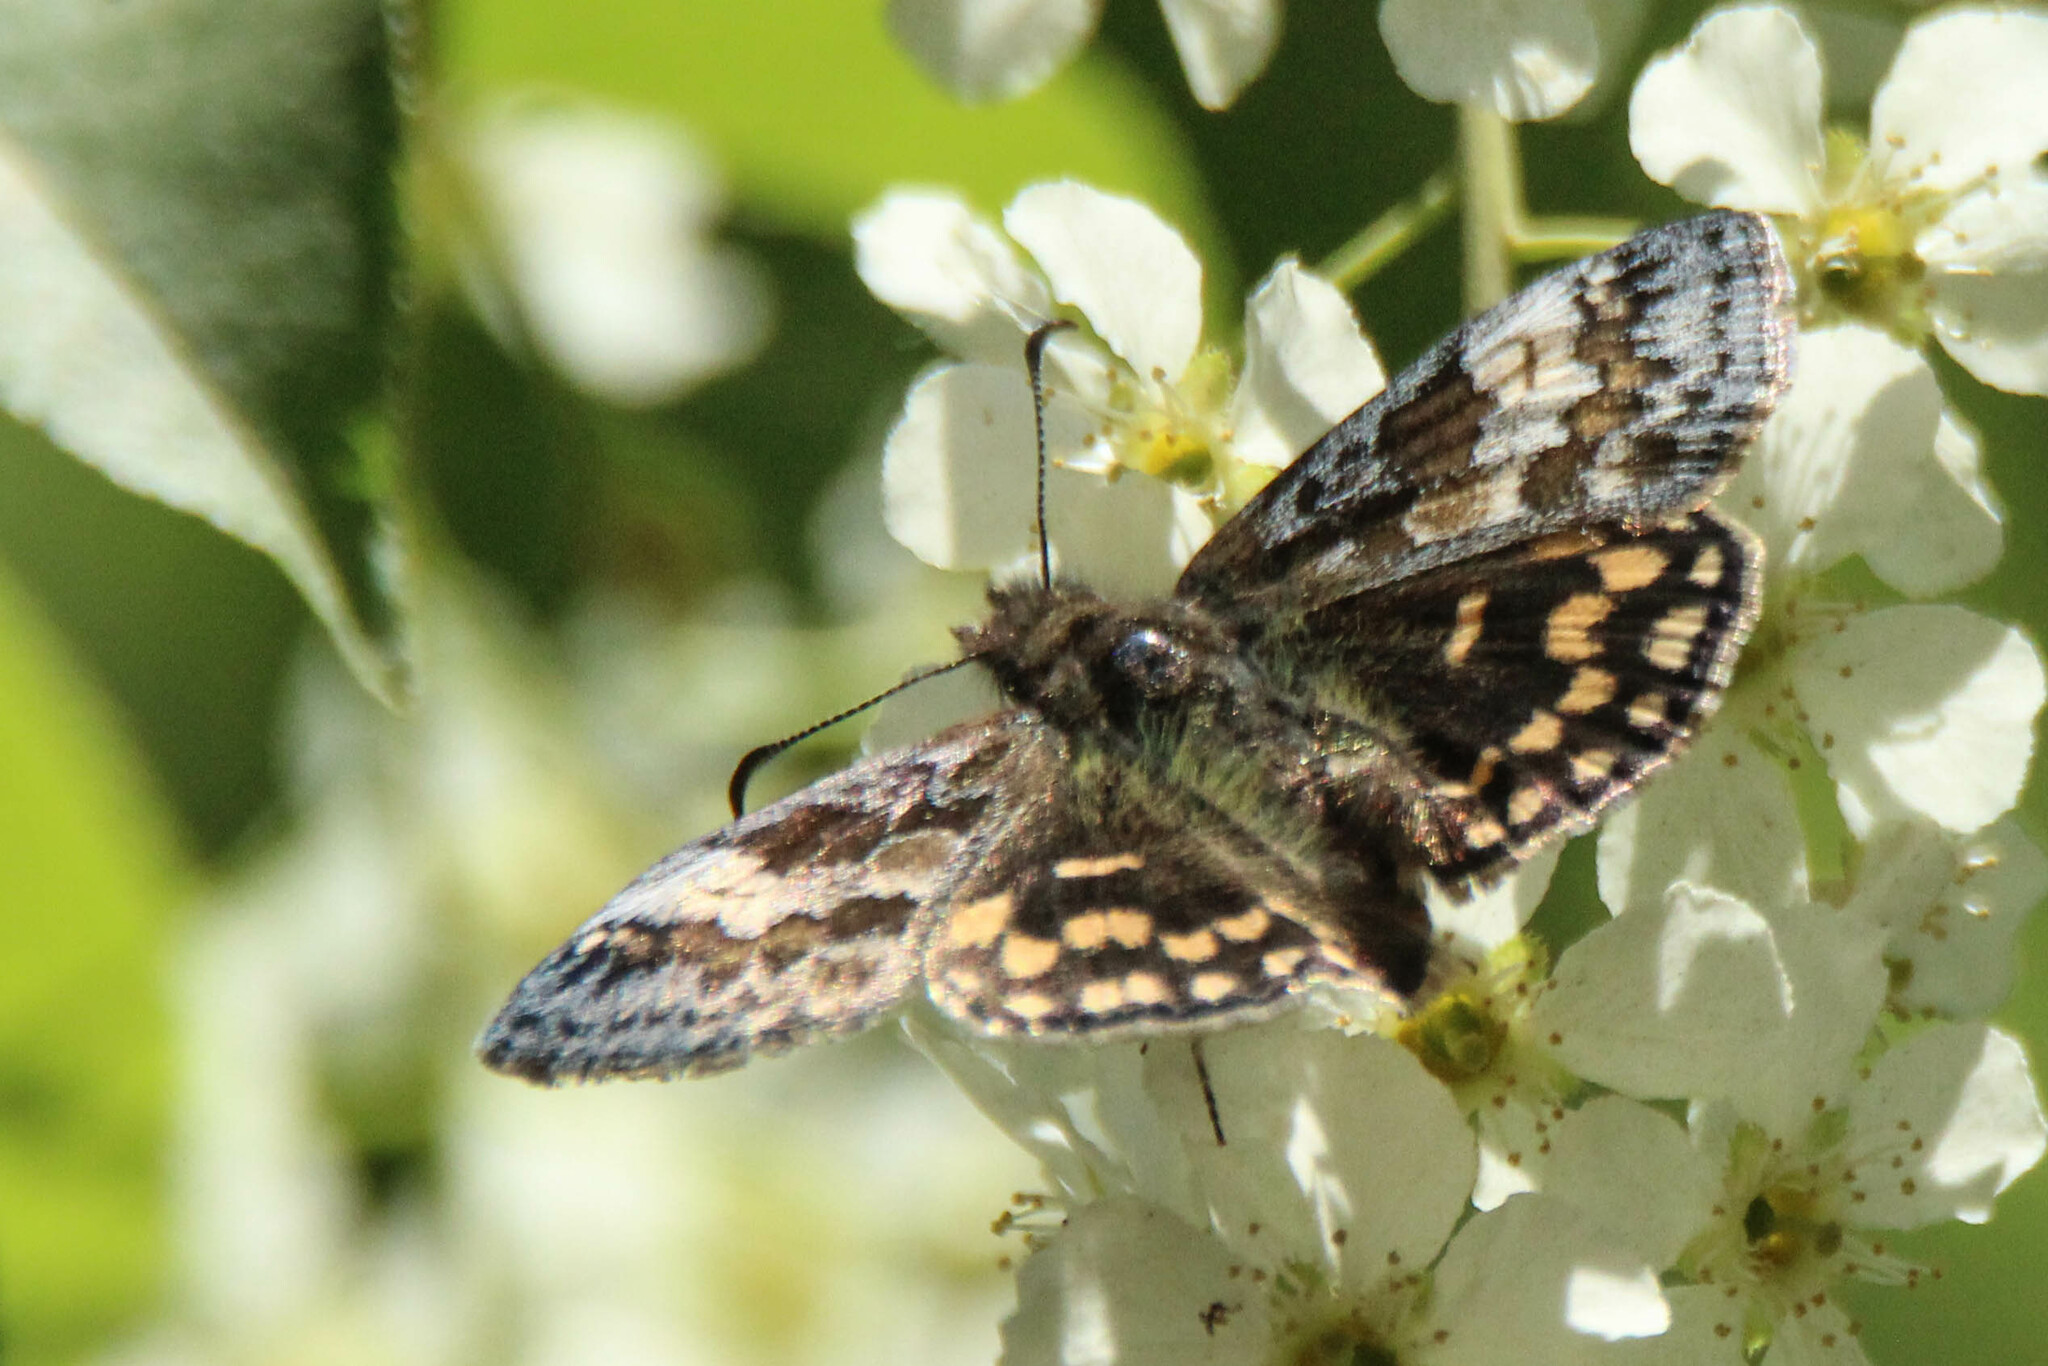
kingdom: Animalia
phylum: Arthropoda
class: Insecta
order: Lepidoptera
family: Hesperiidae
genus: Erynnis
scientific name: Erynnis montanus
